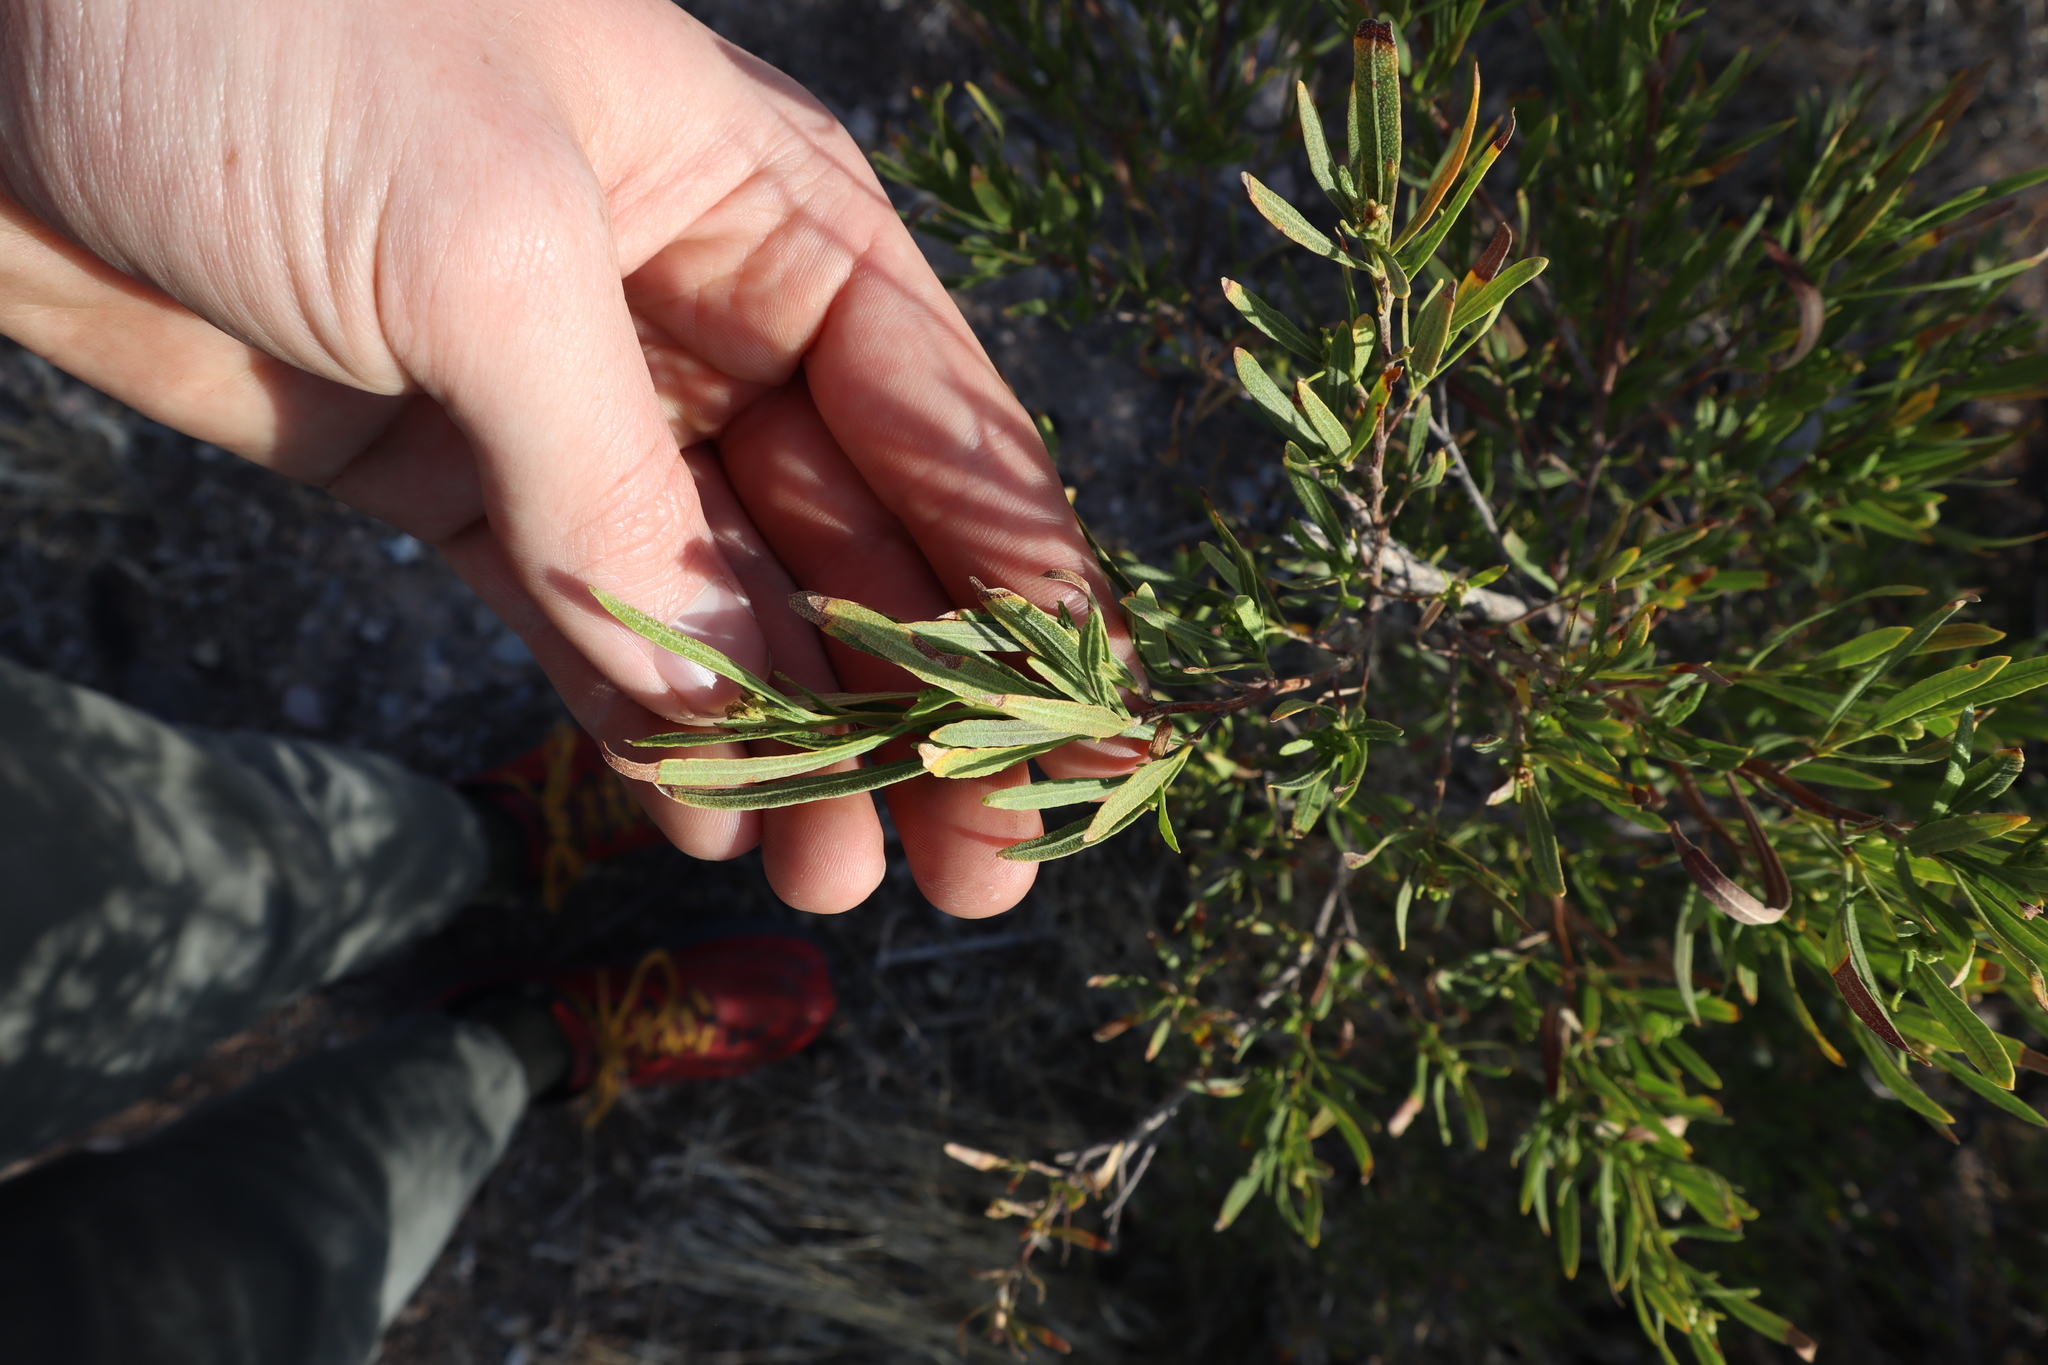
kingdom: Plantae
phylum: Tracheophyta
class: Magnoliopsida
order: Sapindales
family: Sapindaceae
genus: Dodonaea
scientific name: Dodonaea viscosa
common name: Hopbush
